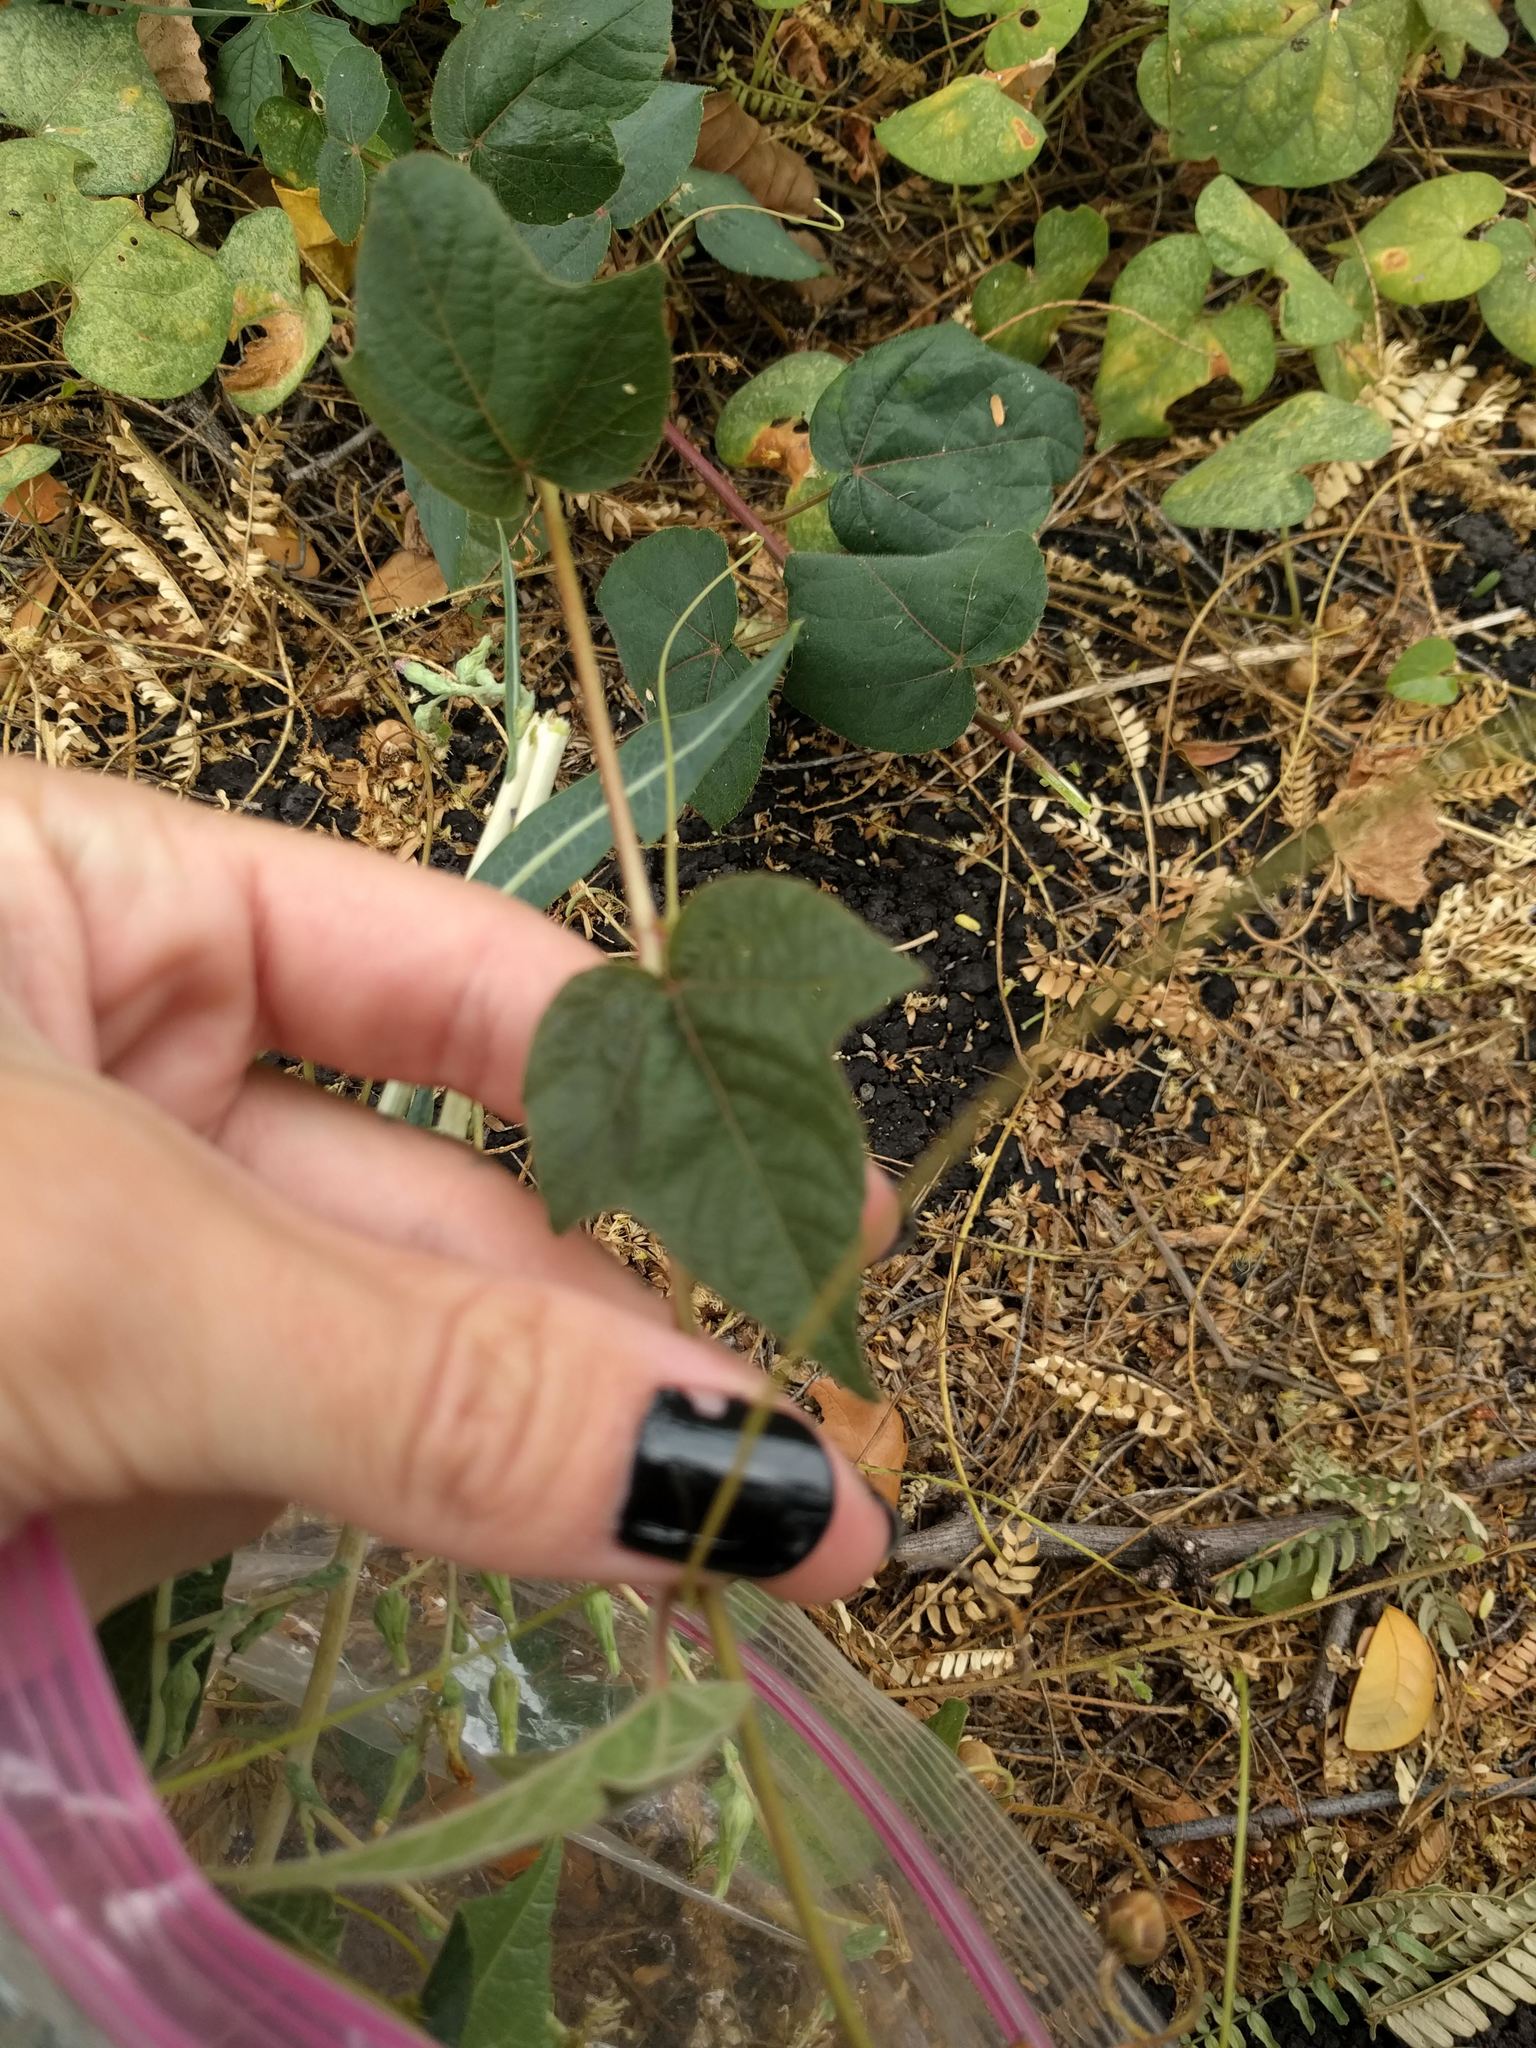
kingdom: Plantae
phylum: Tracheophyta
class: Magnoliopsida
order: Malpighiales
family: Passifloraceae
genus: Passiflora
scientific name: Passiflora foetida
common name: Fetid passionflower
